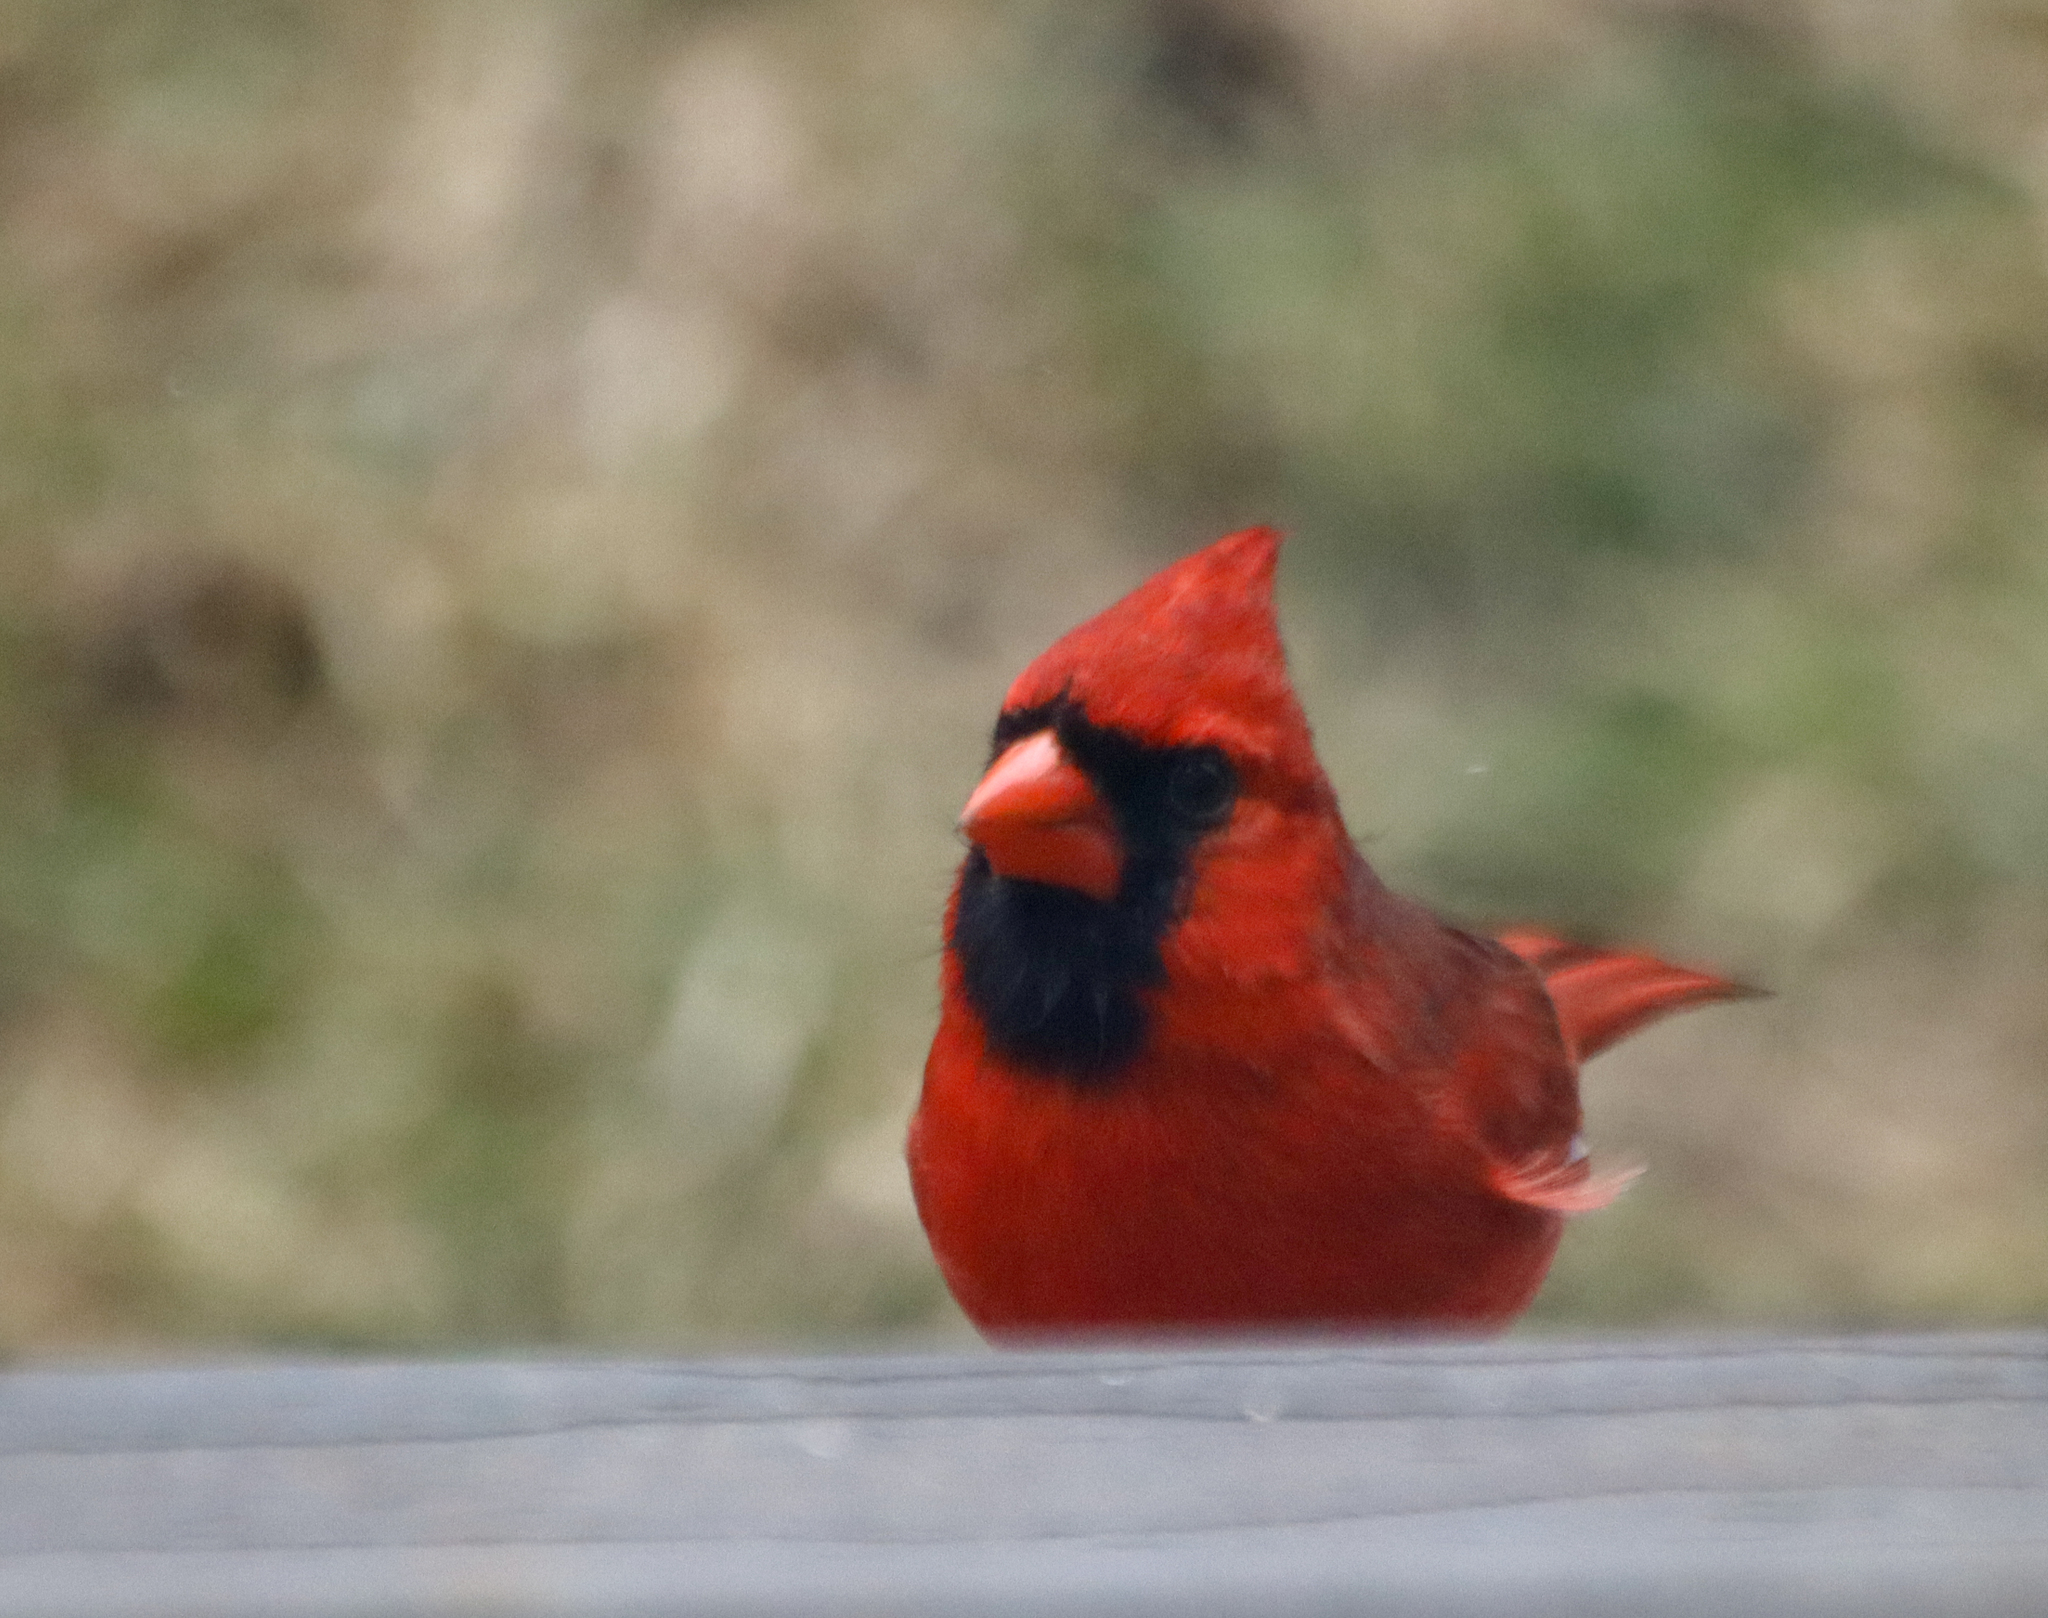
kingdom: Animalia
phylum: Chordata
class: Aves
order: Passeriformes
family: Cardinalidae
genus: Cardinalis
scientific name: Cardinalis cardinalis
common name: Northern cardinal
